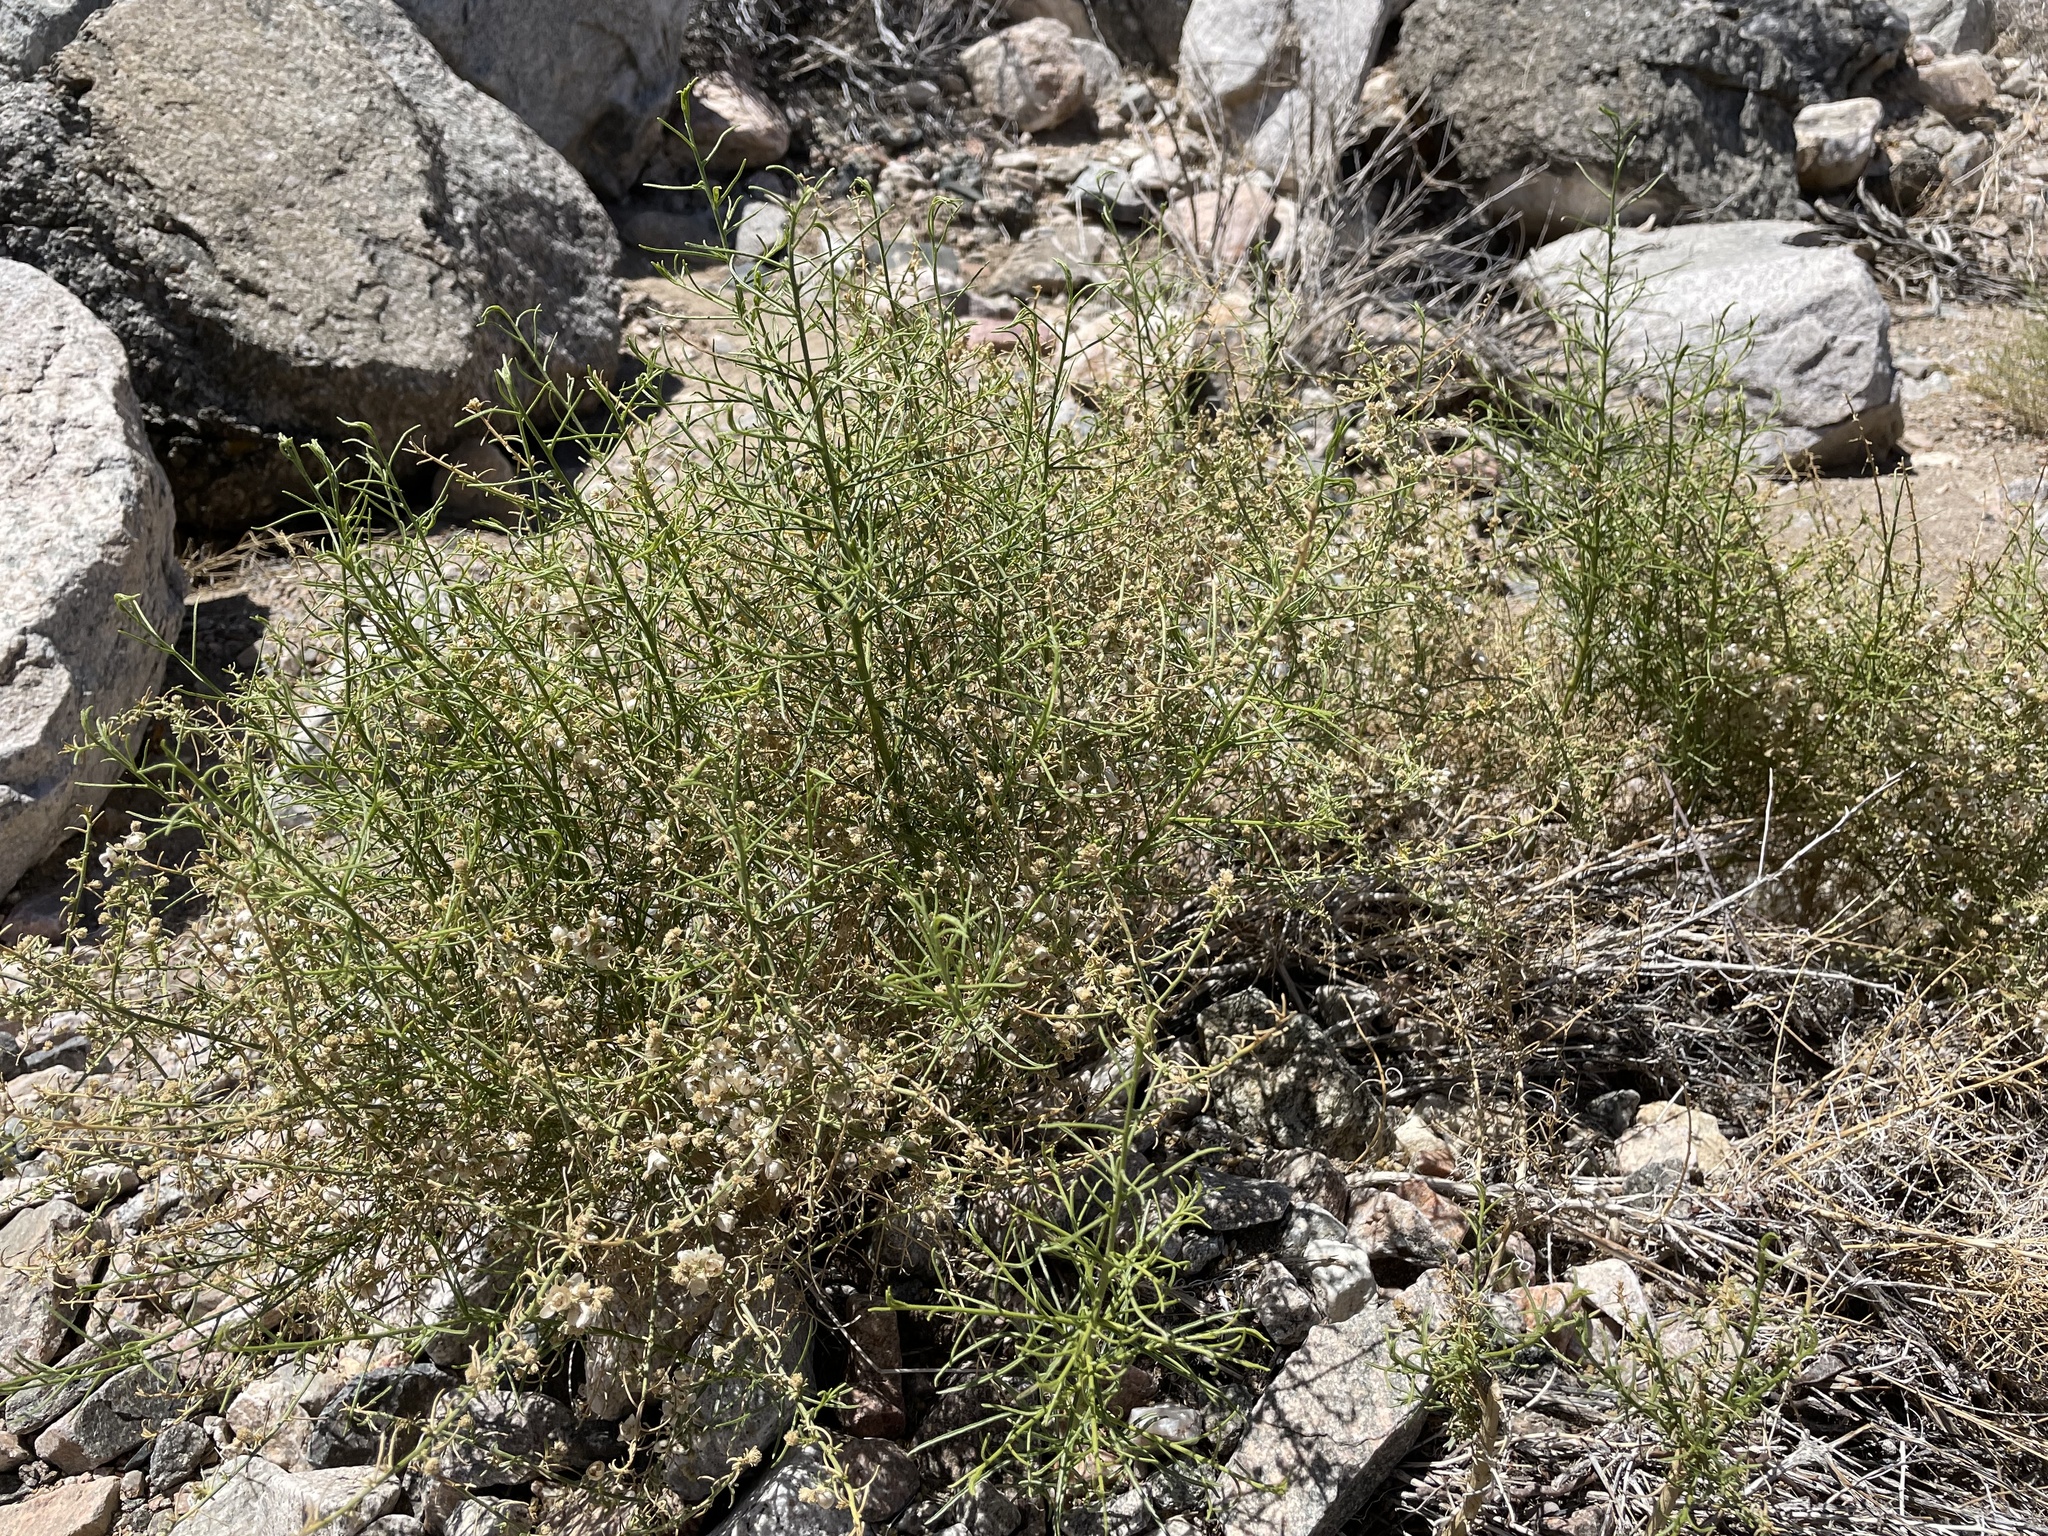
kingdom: Plantae
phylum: Tracheophyta
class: Magnoliopsida
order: Asterales
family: Asteraceae
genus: Ambrosia
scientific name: Ambrosia salsola
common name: Burrobrush
